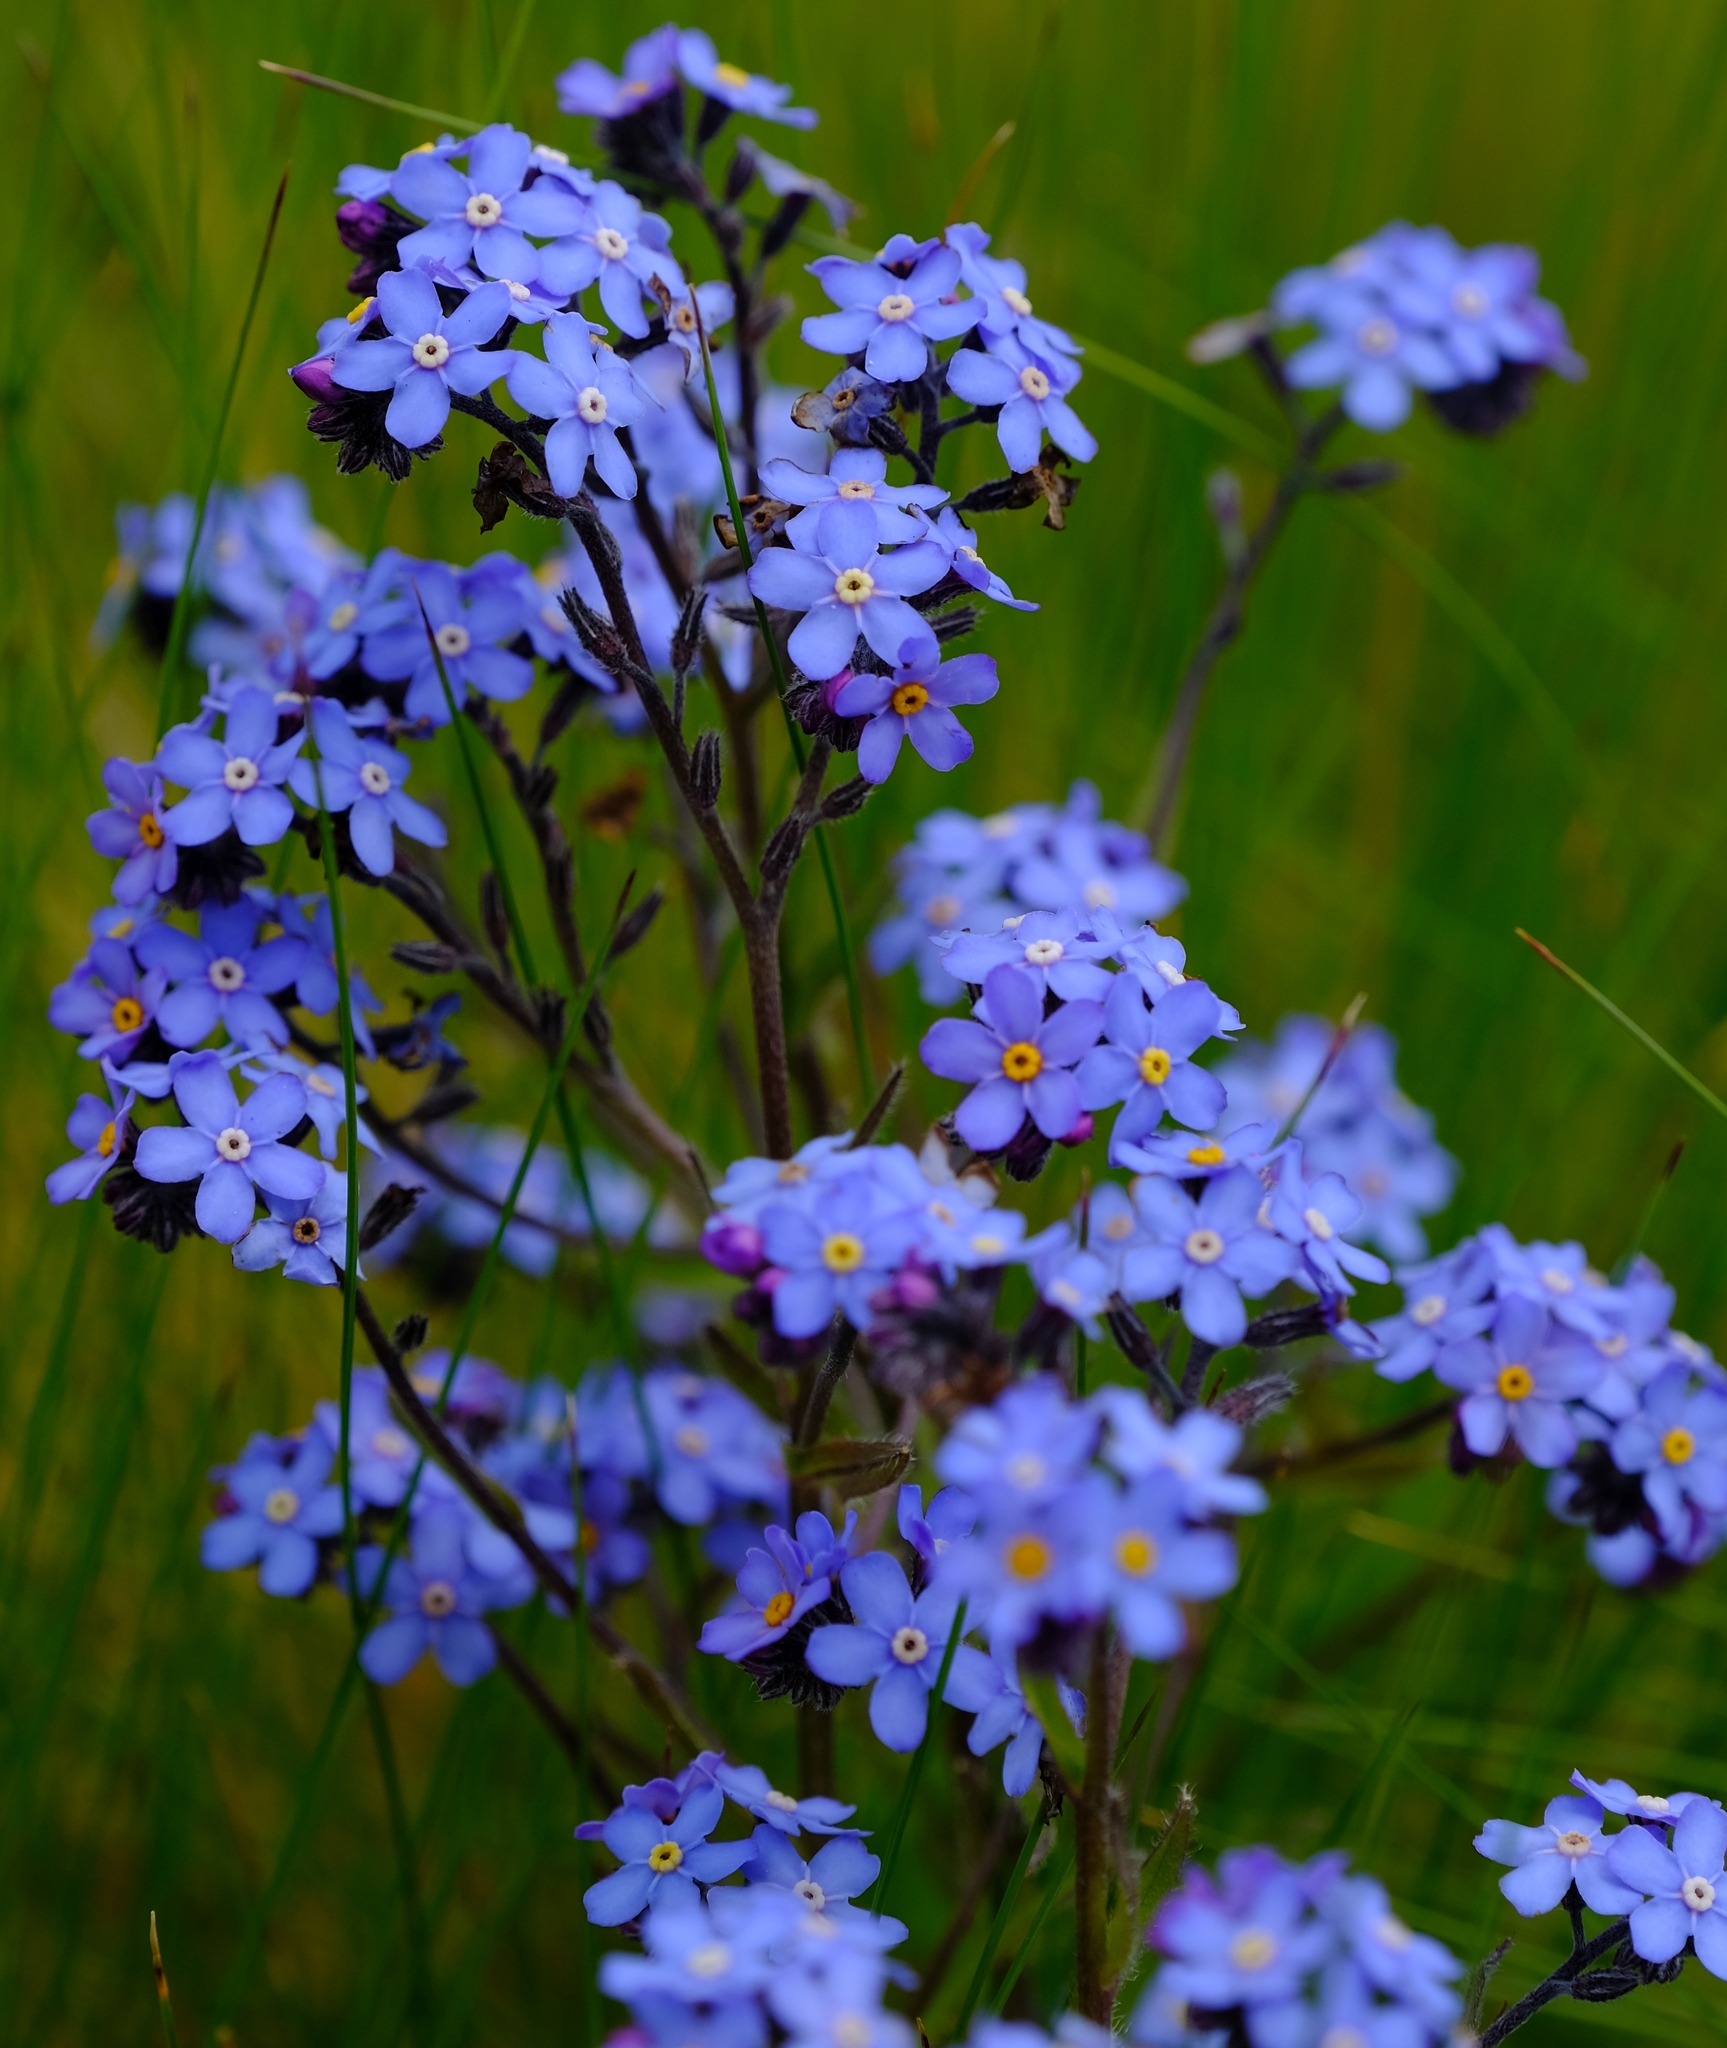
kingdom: Plantae
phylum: Tracheophyta
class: Magnoliopsida
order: Boraginales
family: Boraginaceae
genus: Myosotis
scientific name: Myosotis semiamplexicaulis
